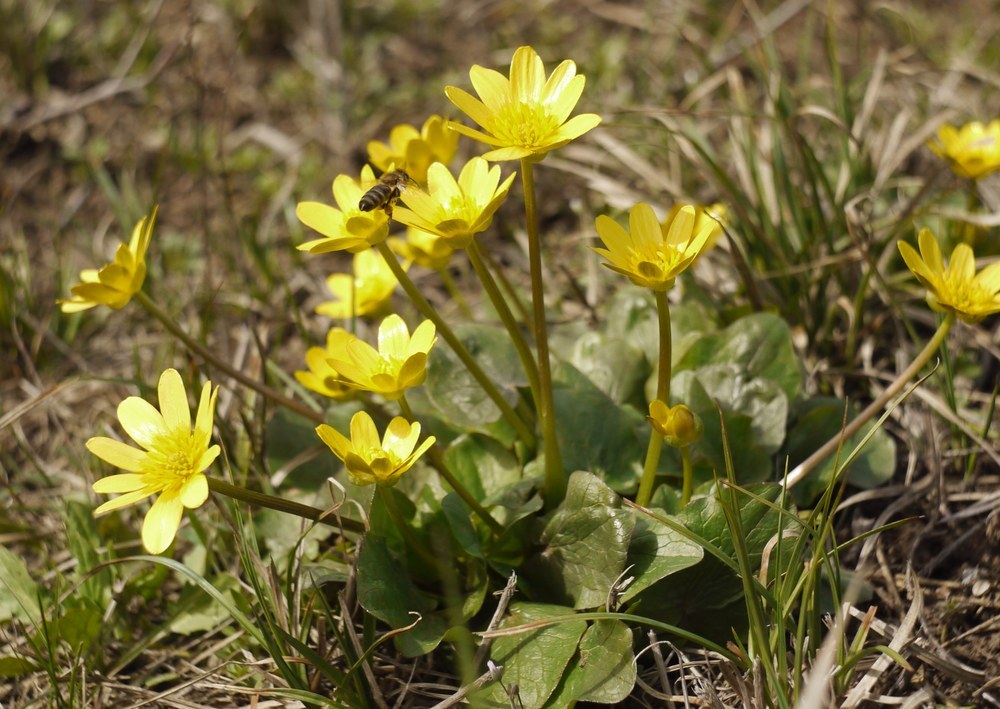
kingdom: Plantae
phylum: Tracheophyta
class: Magnoliopsida
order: Ranunculales
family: Ranunculaceae
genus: Ficaria
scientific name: Ficaria verna
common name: Lesser celandine
